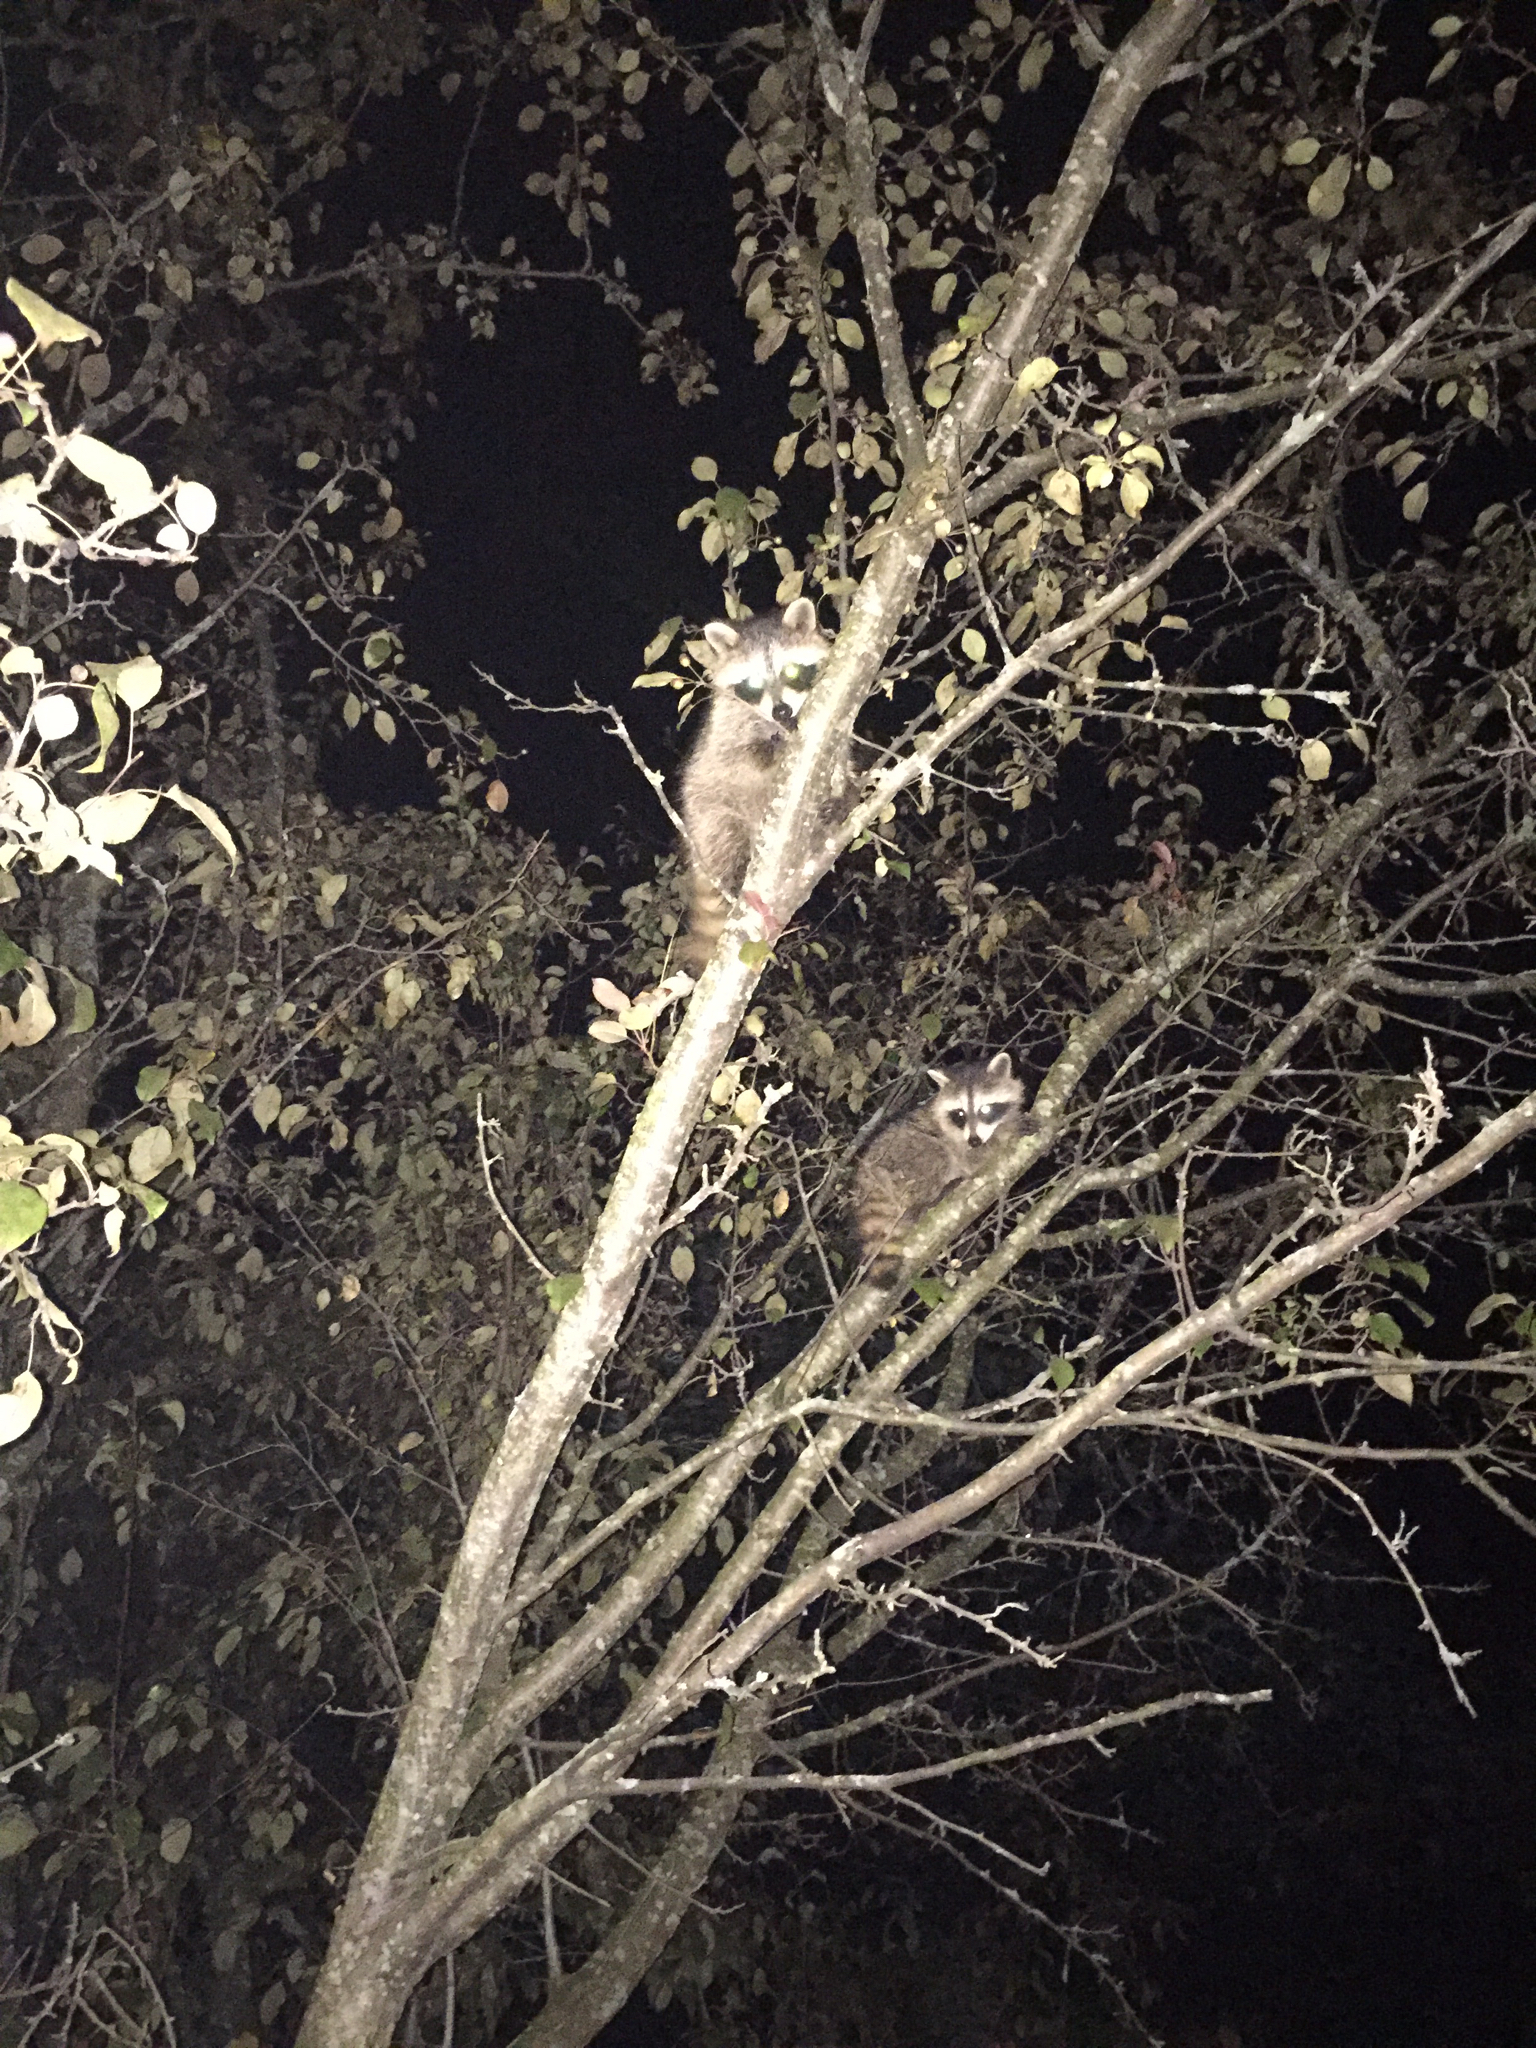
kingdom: Animalia
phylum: Chordata
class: Mammalia
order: Carnivora
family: Procyonidae
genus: Procyon
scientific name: Procyon lotor
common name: Raccoon
